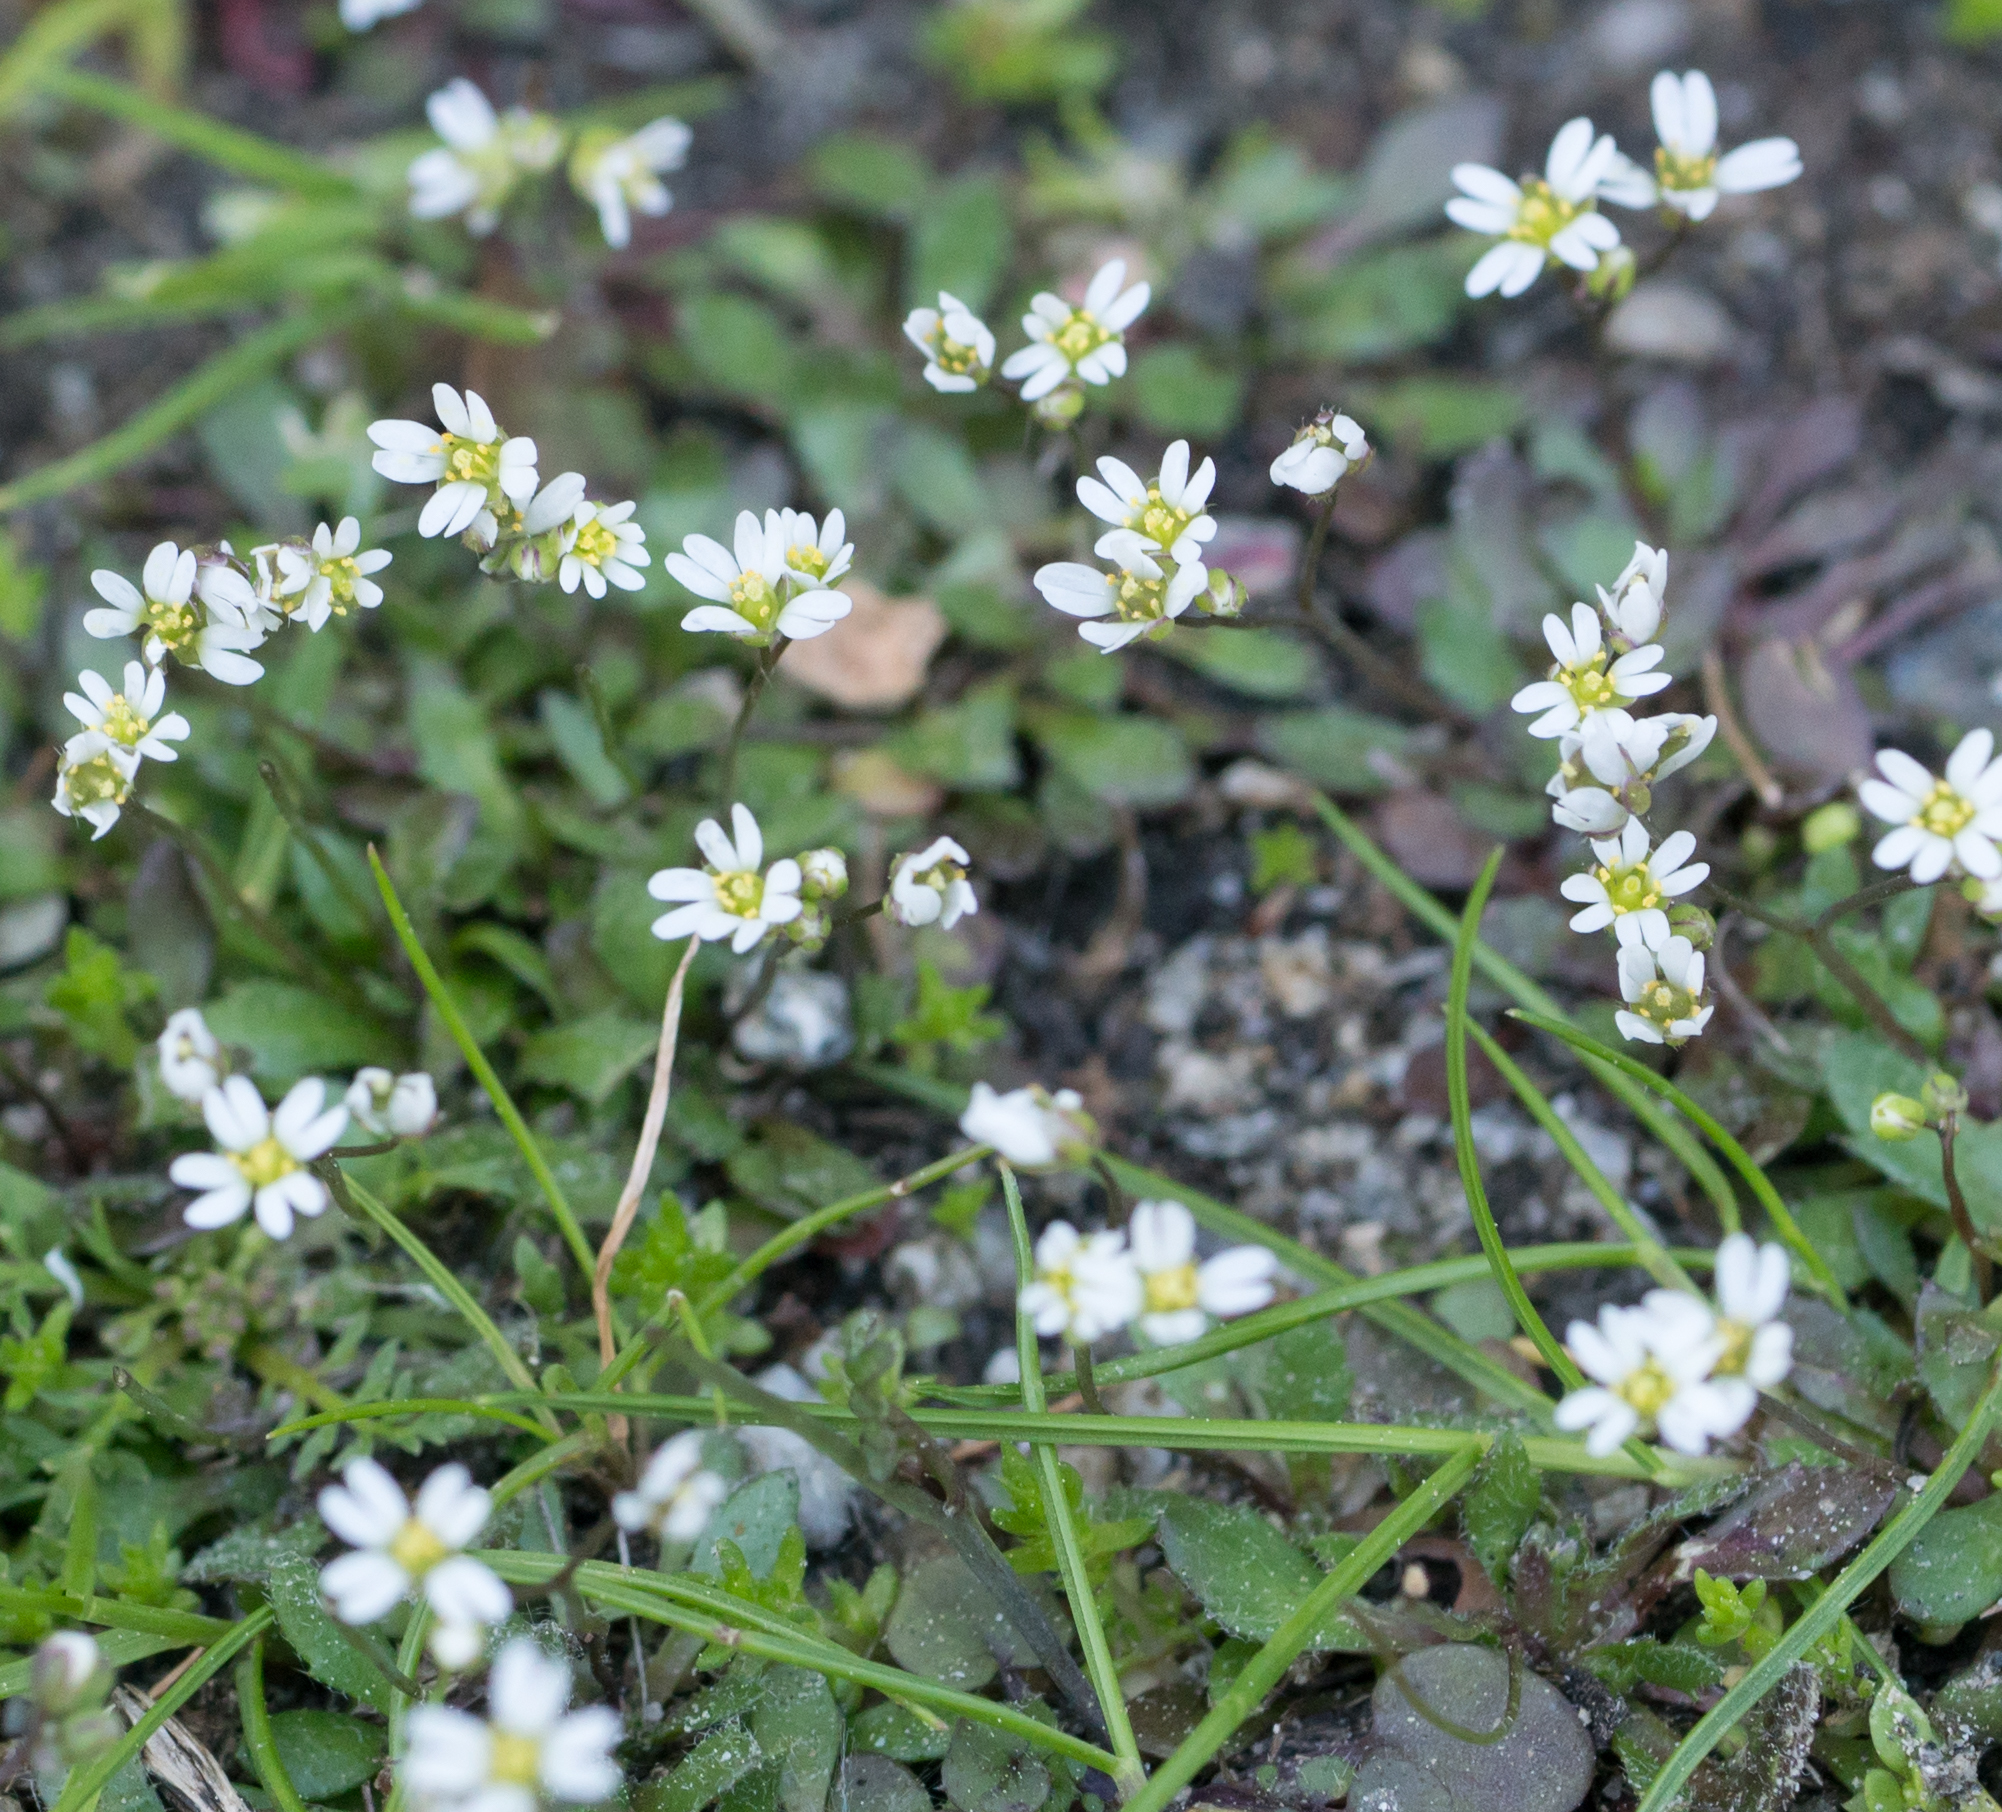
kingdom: Plantae
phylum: Tracheophyta
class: Magnoliopsida
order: Brassicales
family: Brassicaceae
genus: Draba
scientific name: Draba verna
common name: Spring draba
